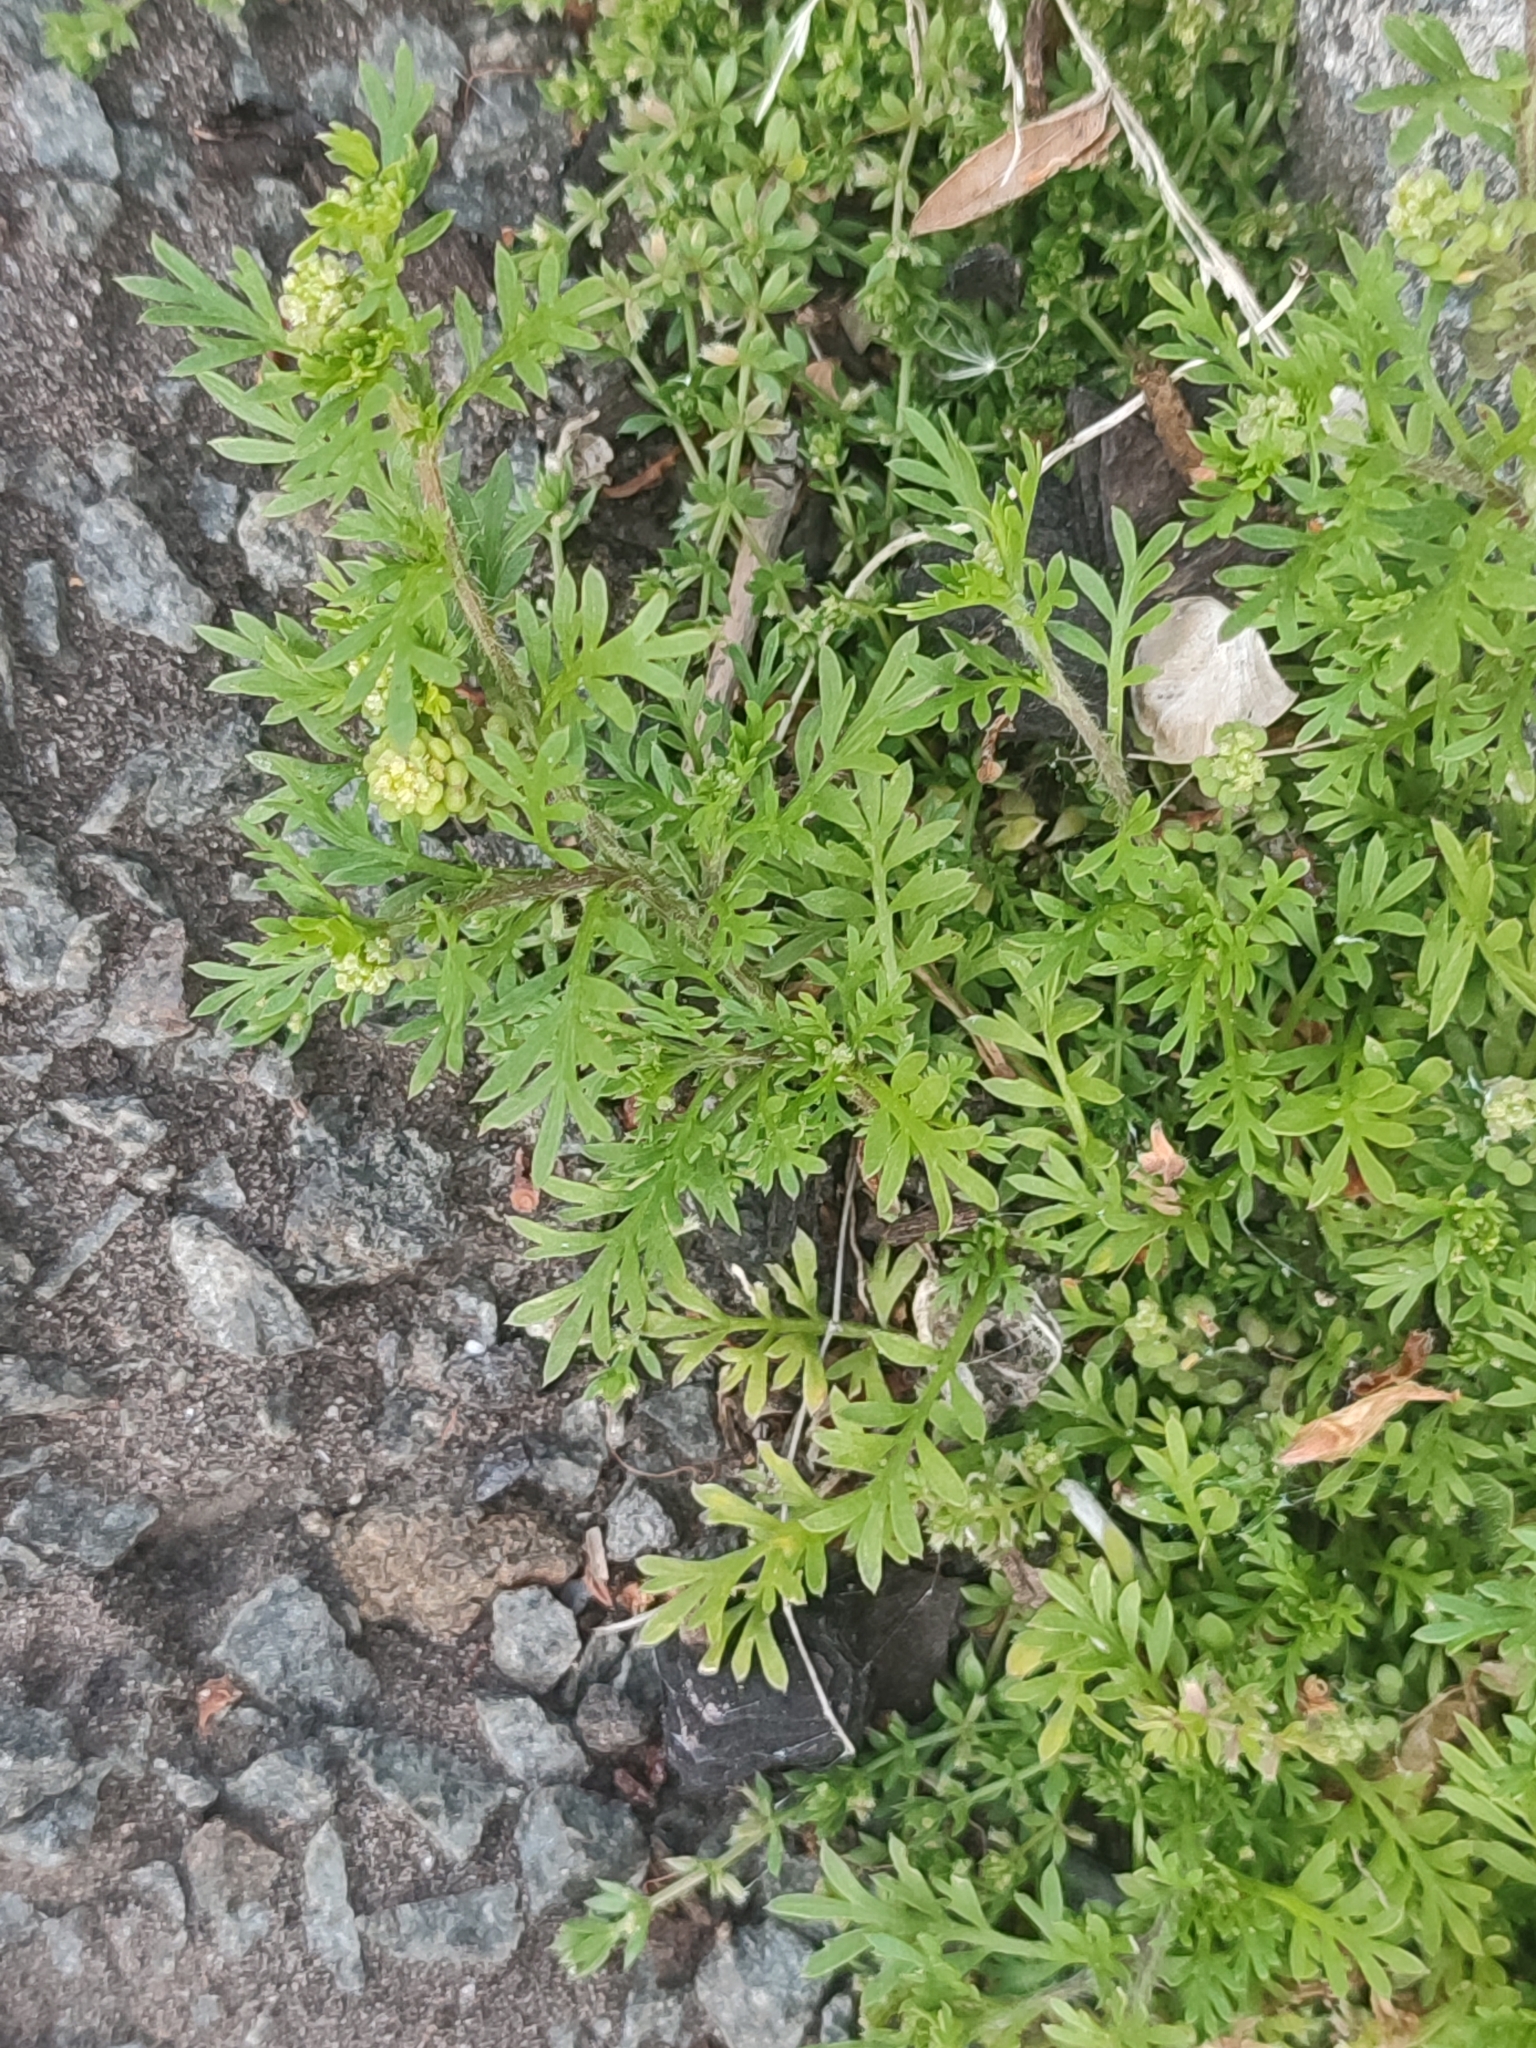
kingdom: Plantae
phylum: Tracheophyta
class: Magnoliopsida
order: Brassicales
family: Brassicaceae
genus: Lepidium
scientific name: Lepidium didymum
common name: Lesser swinecress
